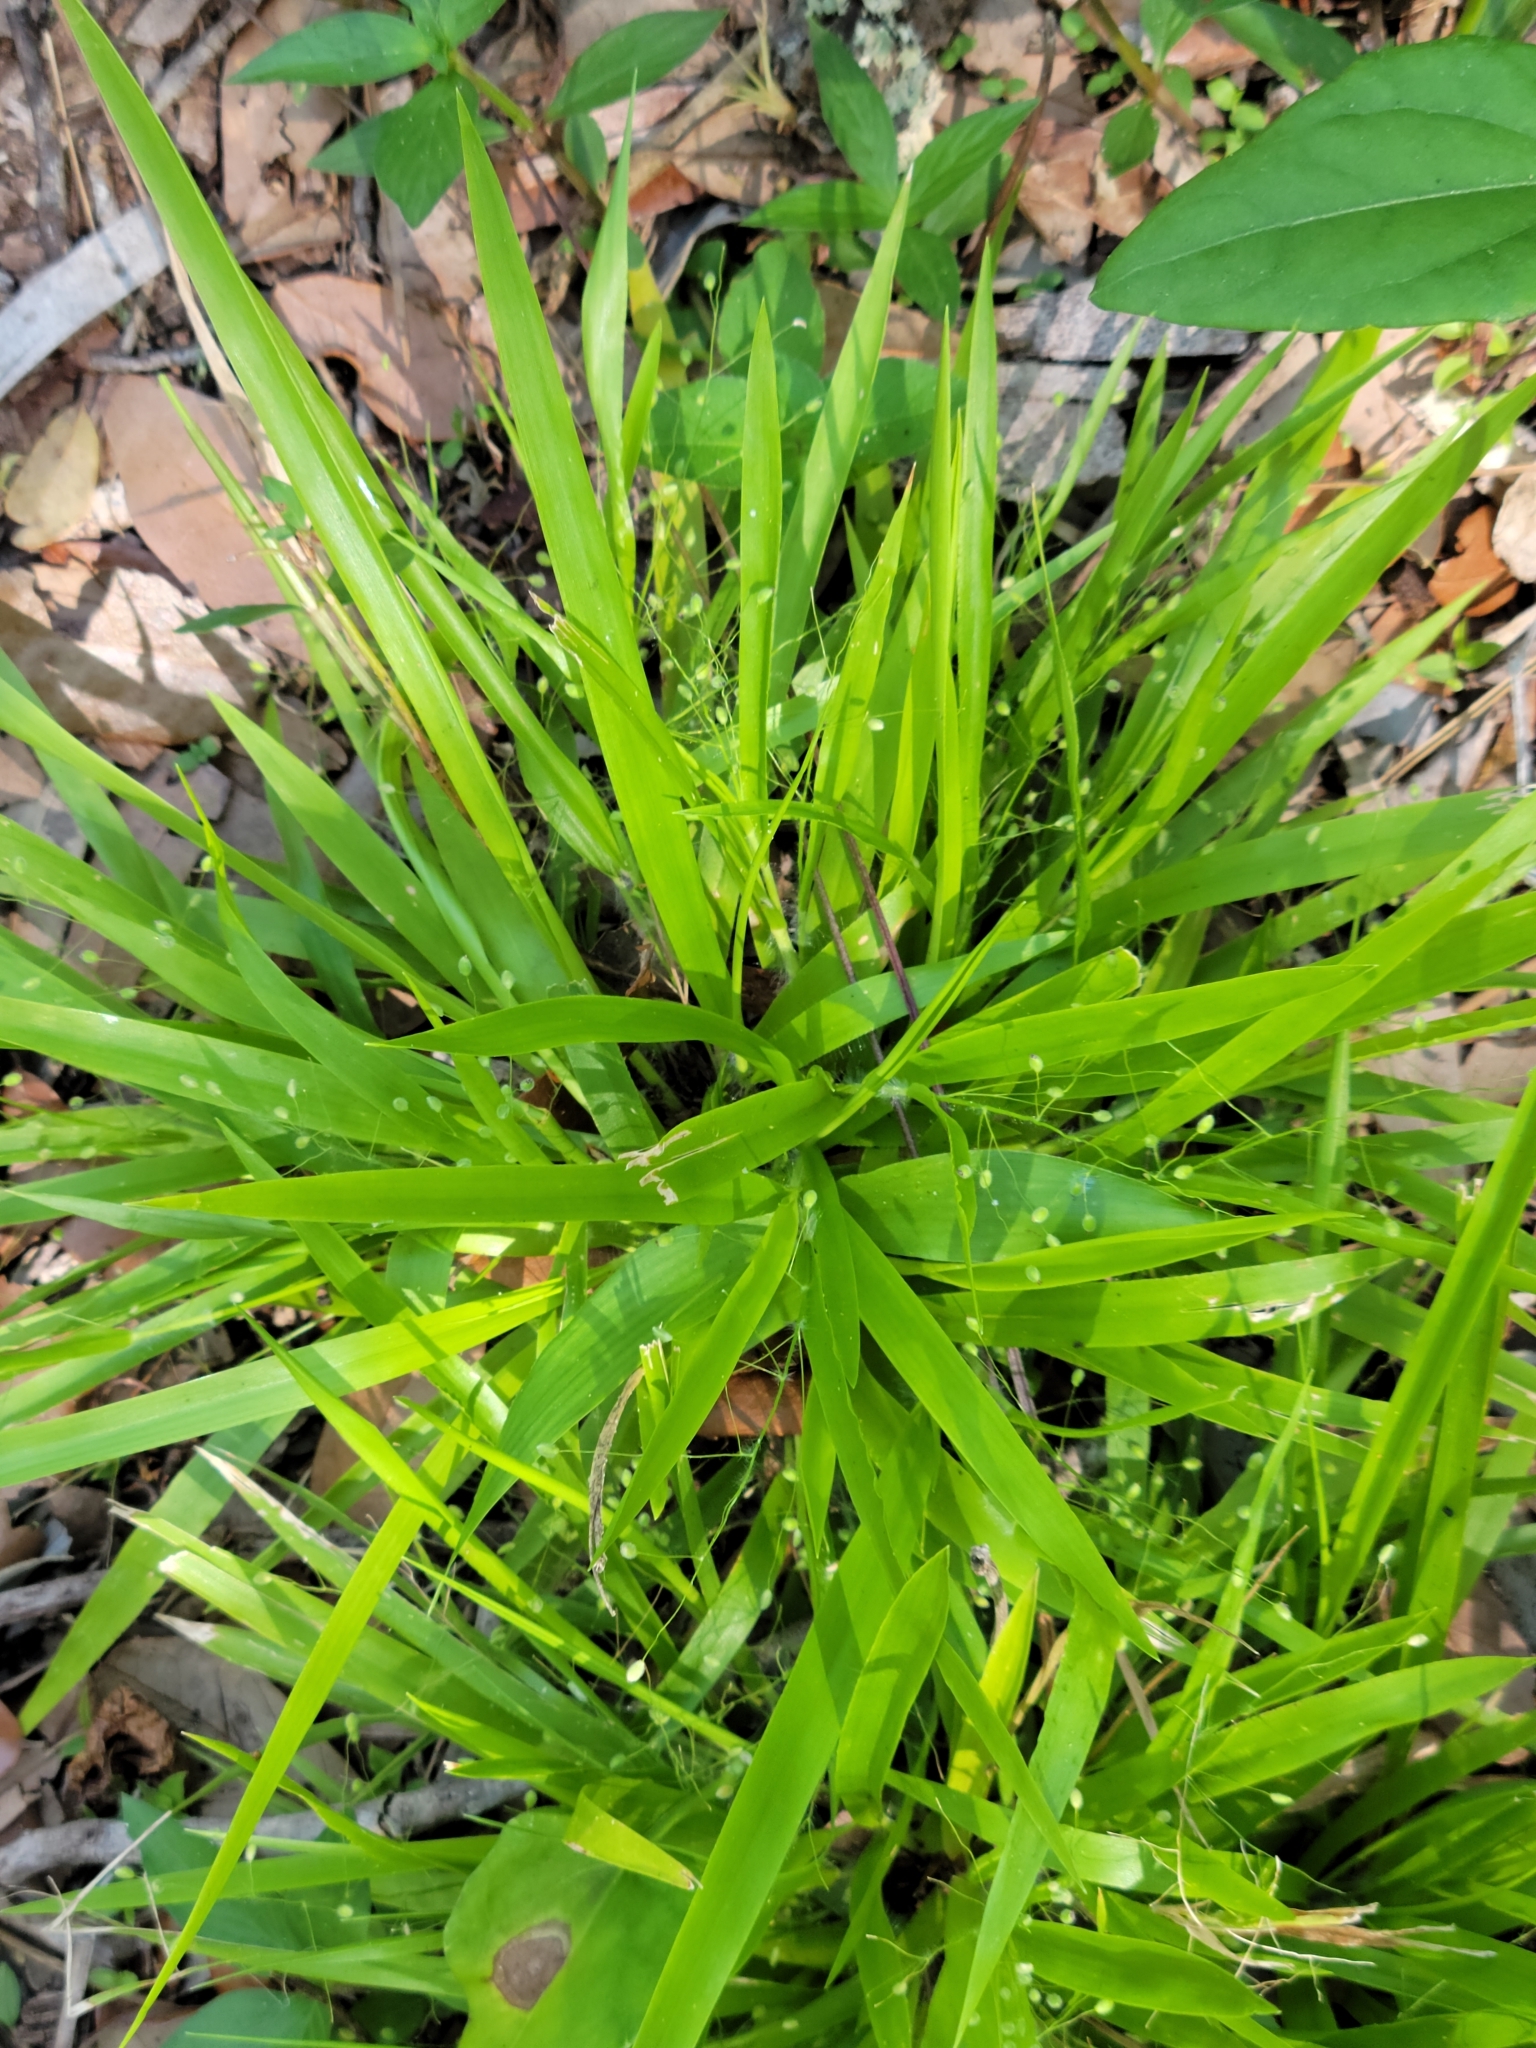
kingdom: Plantae
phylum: Tracheophyta
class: Liliopsida
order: Poales
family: Poaceae
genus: Dichanthelium
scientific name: Dichanthelium laxiflorum
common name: Soft-tuft panic grass
